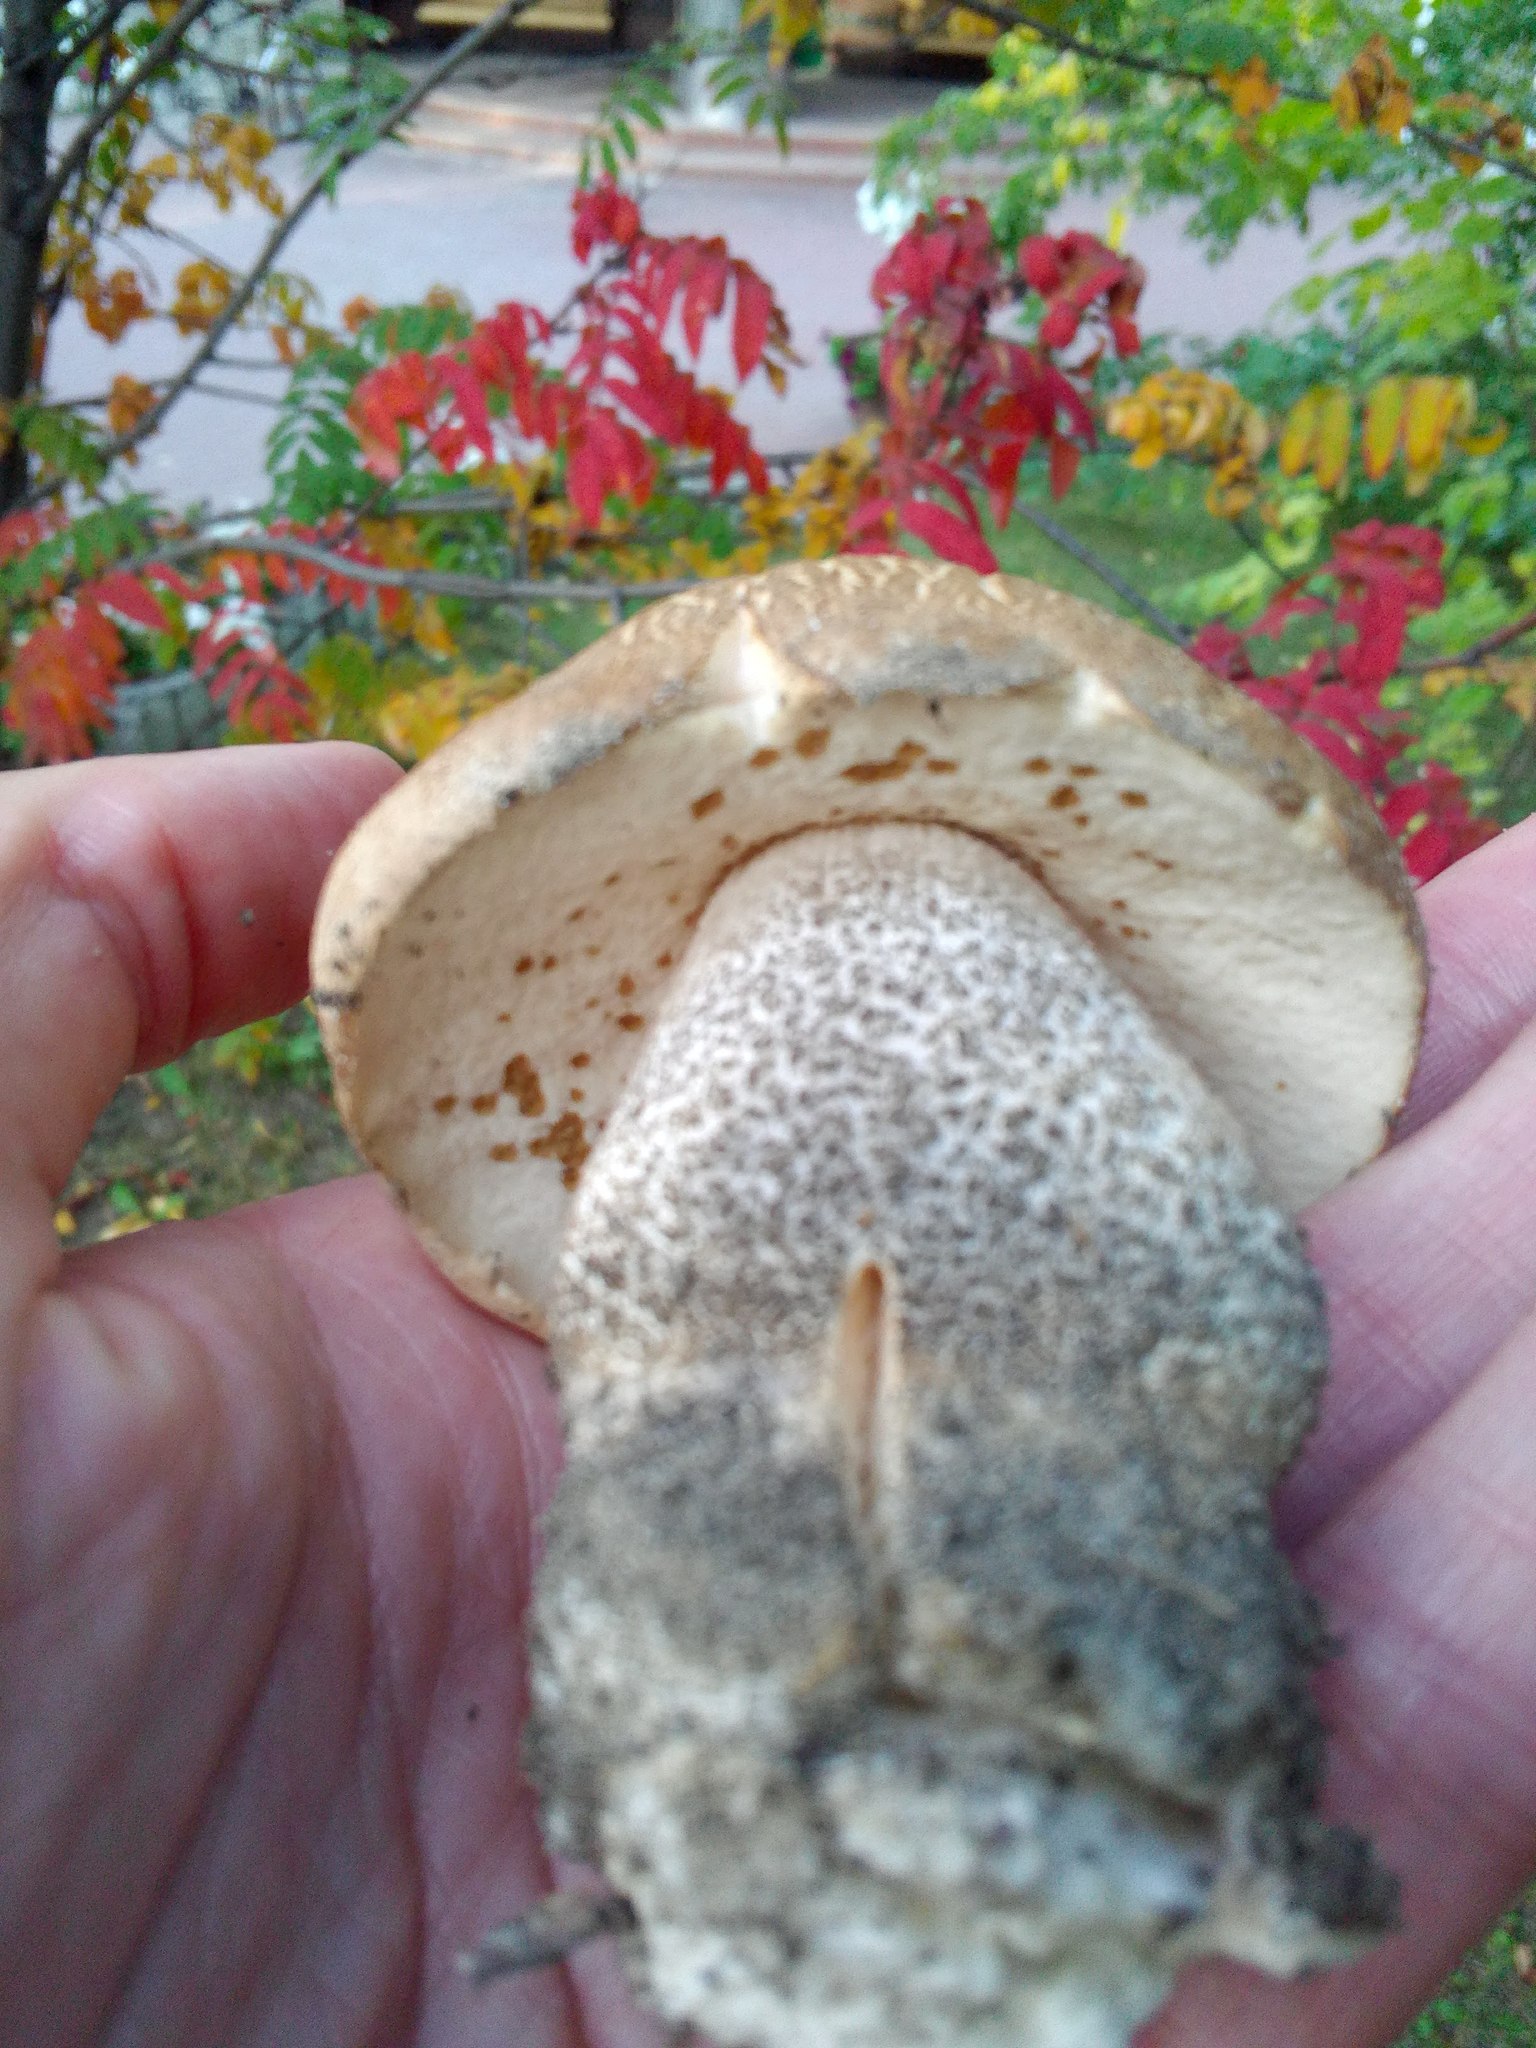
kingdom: Fungi
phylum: Basidiomycota
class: Agaricomycetes
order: Boletales
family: Boletaceae
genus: Leccinum
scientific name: Leccinum scabrum
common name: Blushing bolete
